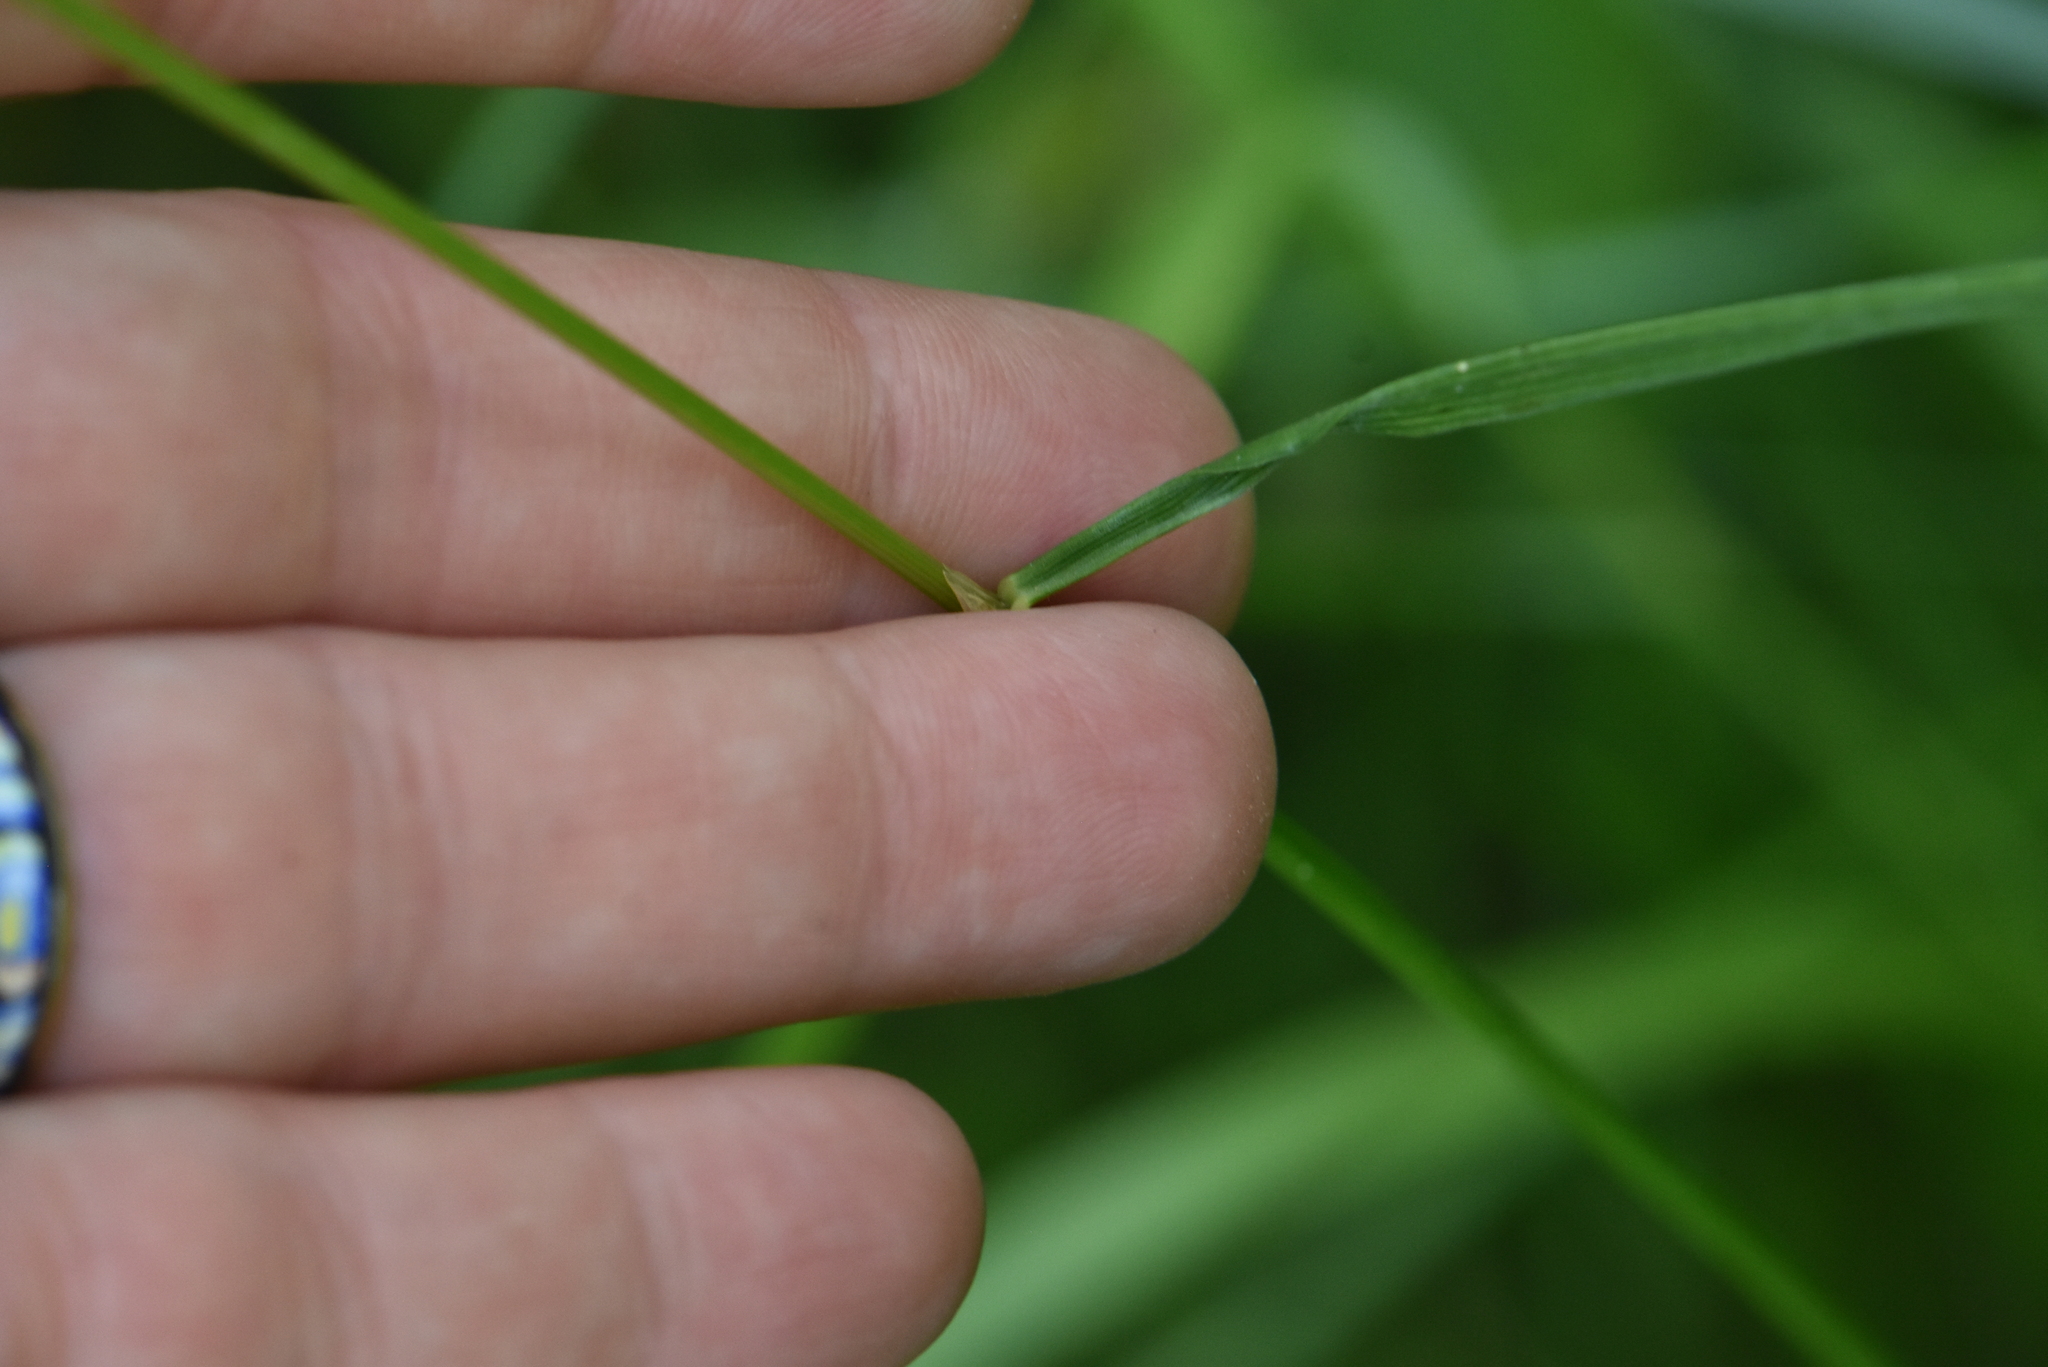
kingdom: Plantae
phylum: Tracheophyta
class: Liliopsida
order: Poales
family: Poaceae
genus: Deschampsia
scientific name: Deschampsia cespitosa
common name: Tufted hair-grass
